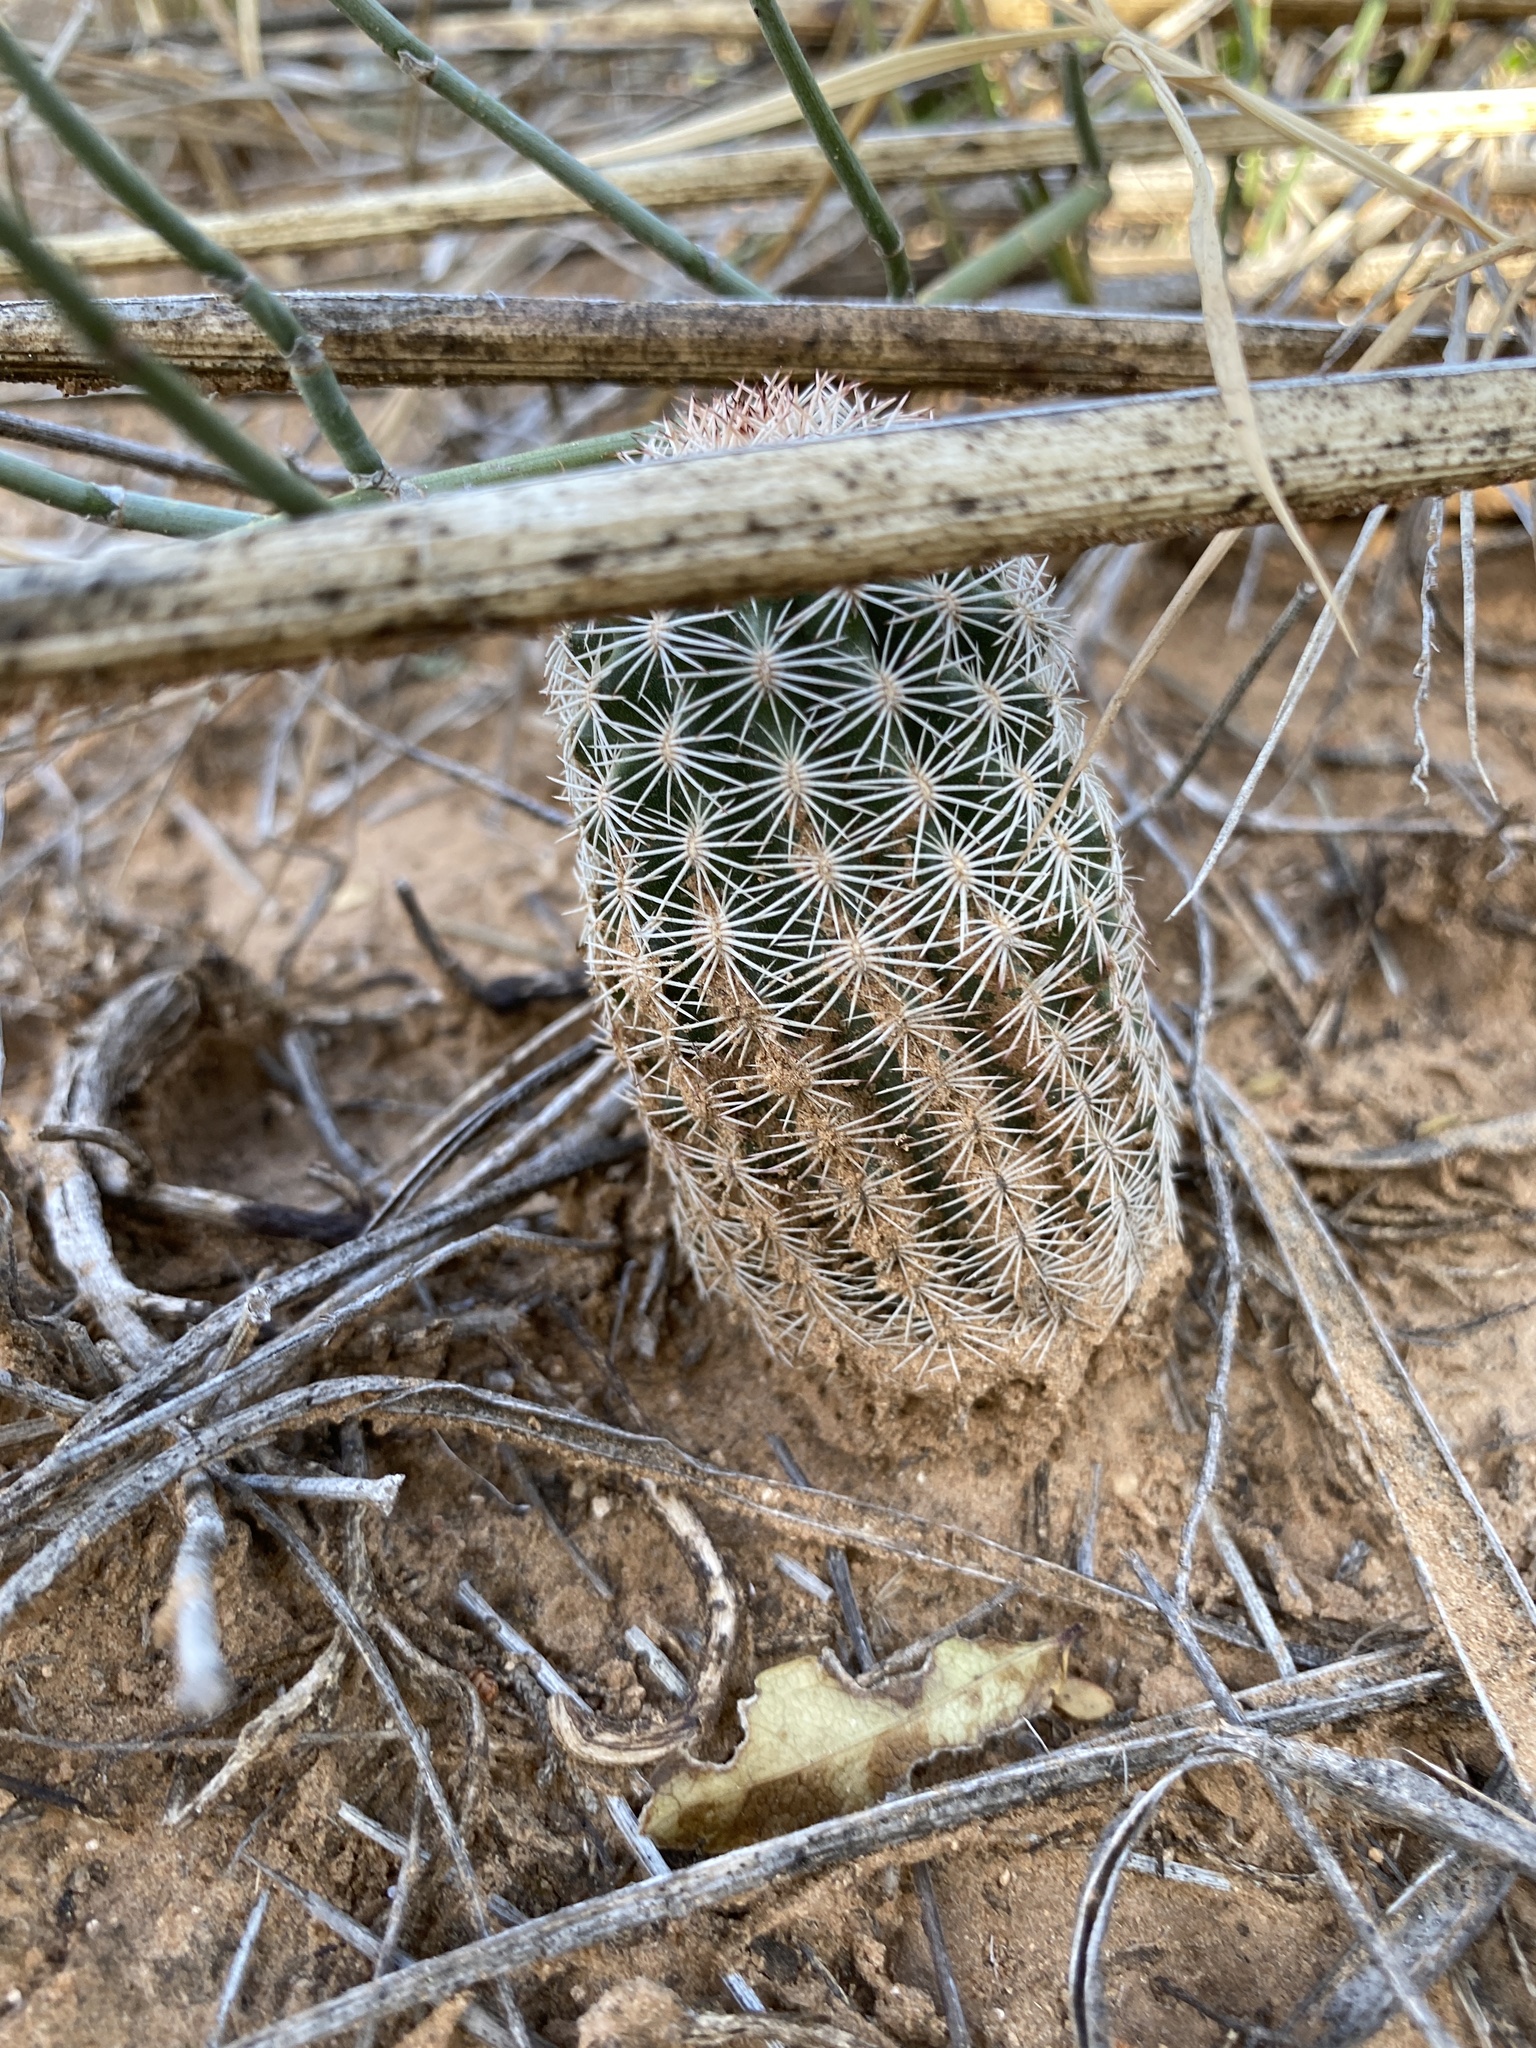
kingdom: Plantae
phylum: Tracheophyta
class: Magnoliopsida
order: Caryophyllales
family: Cactaceae
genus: Echinocereus
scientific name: Echinocereus reichenbachii
